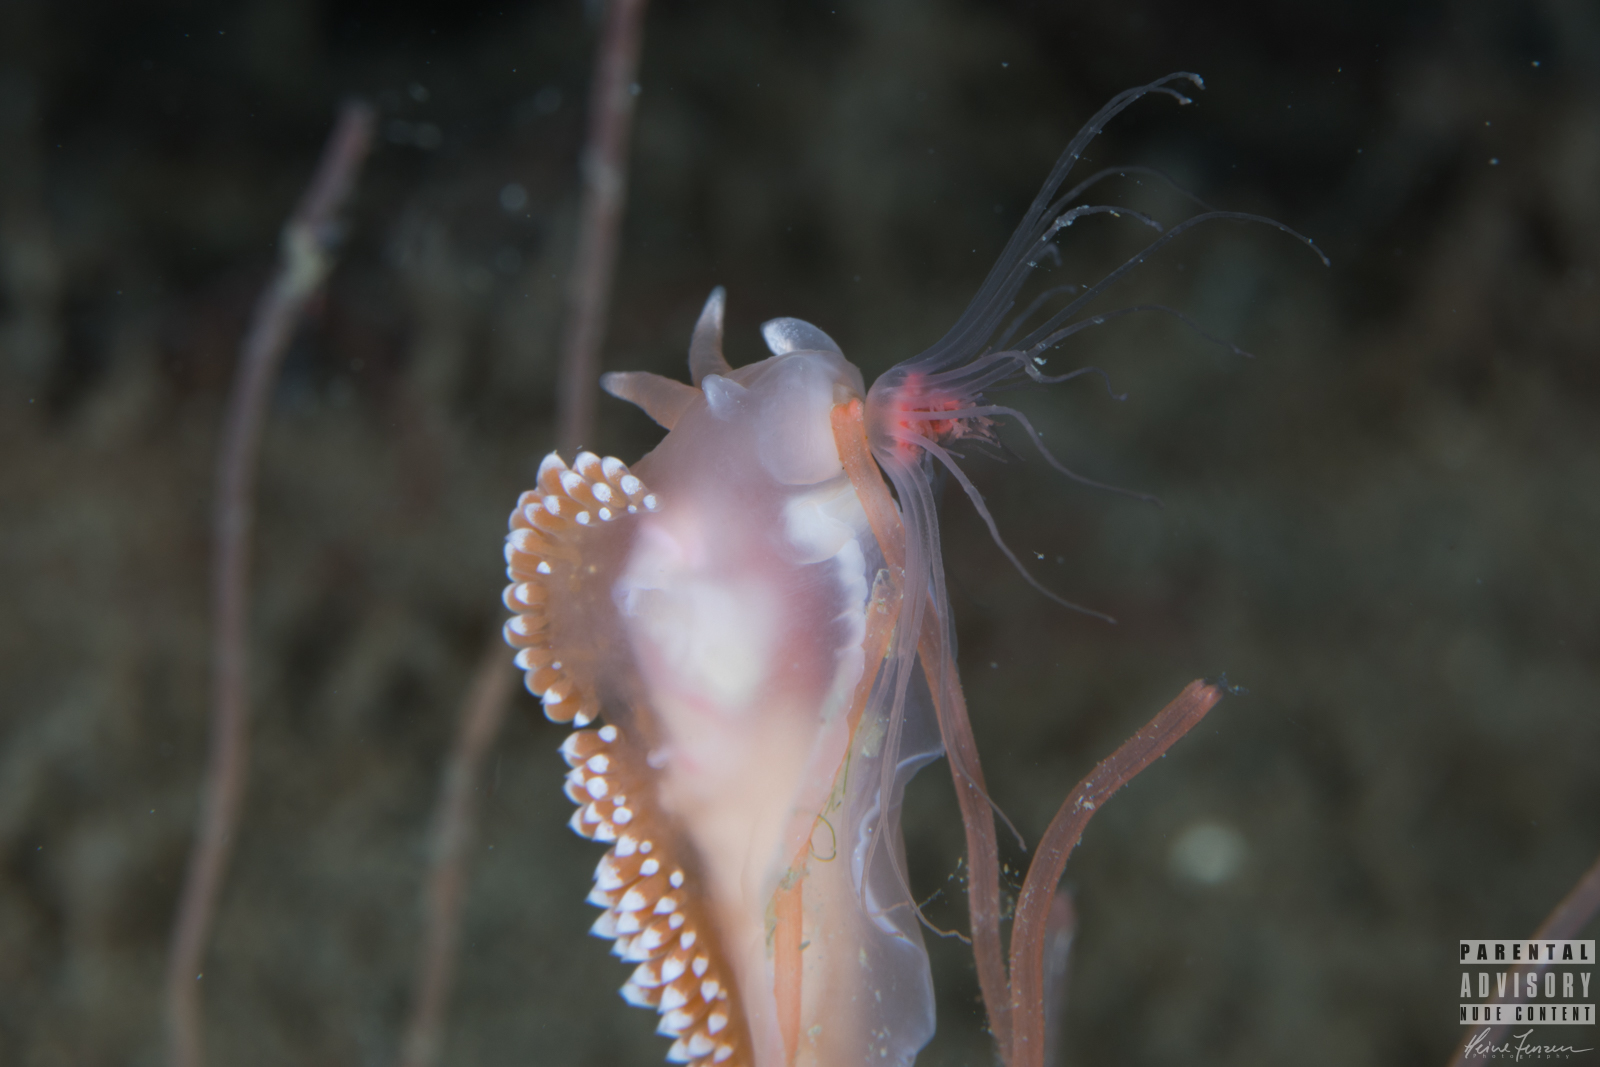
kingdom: Animalia
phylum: Mollusca
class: Gastropoda
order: Nudibranchia
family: Coryphellidae
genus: Coryphella
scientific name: Coryphella verrucosa
